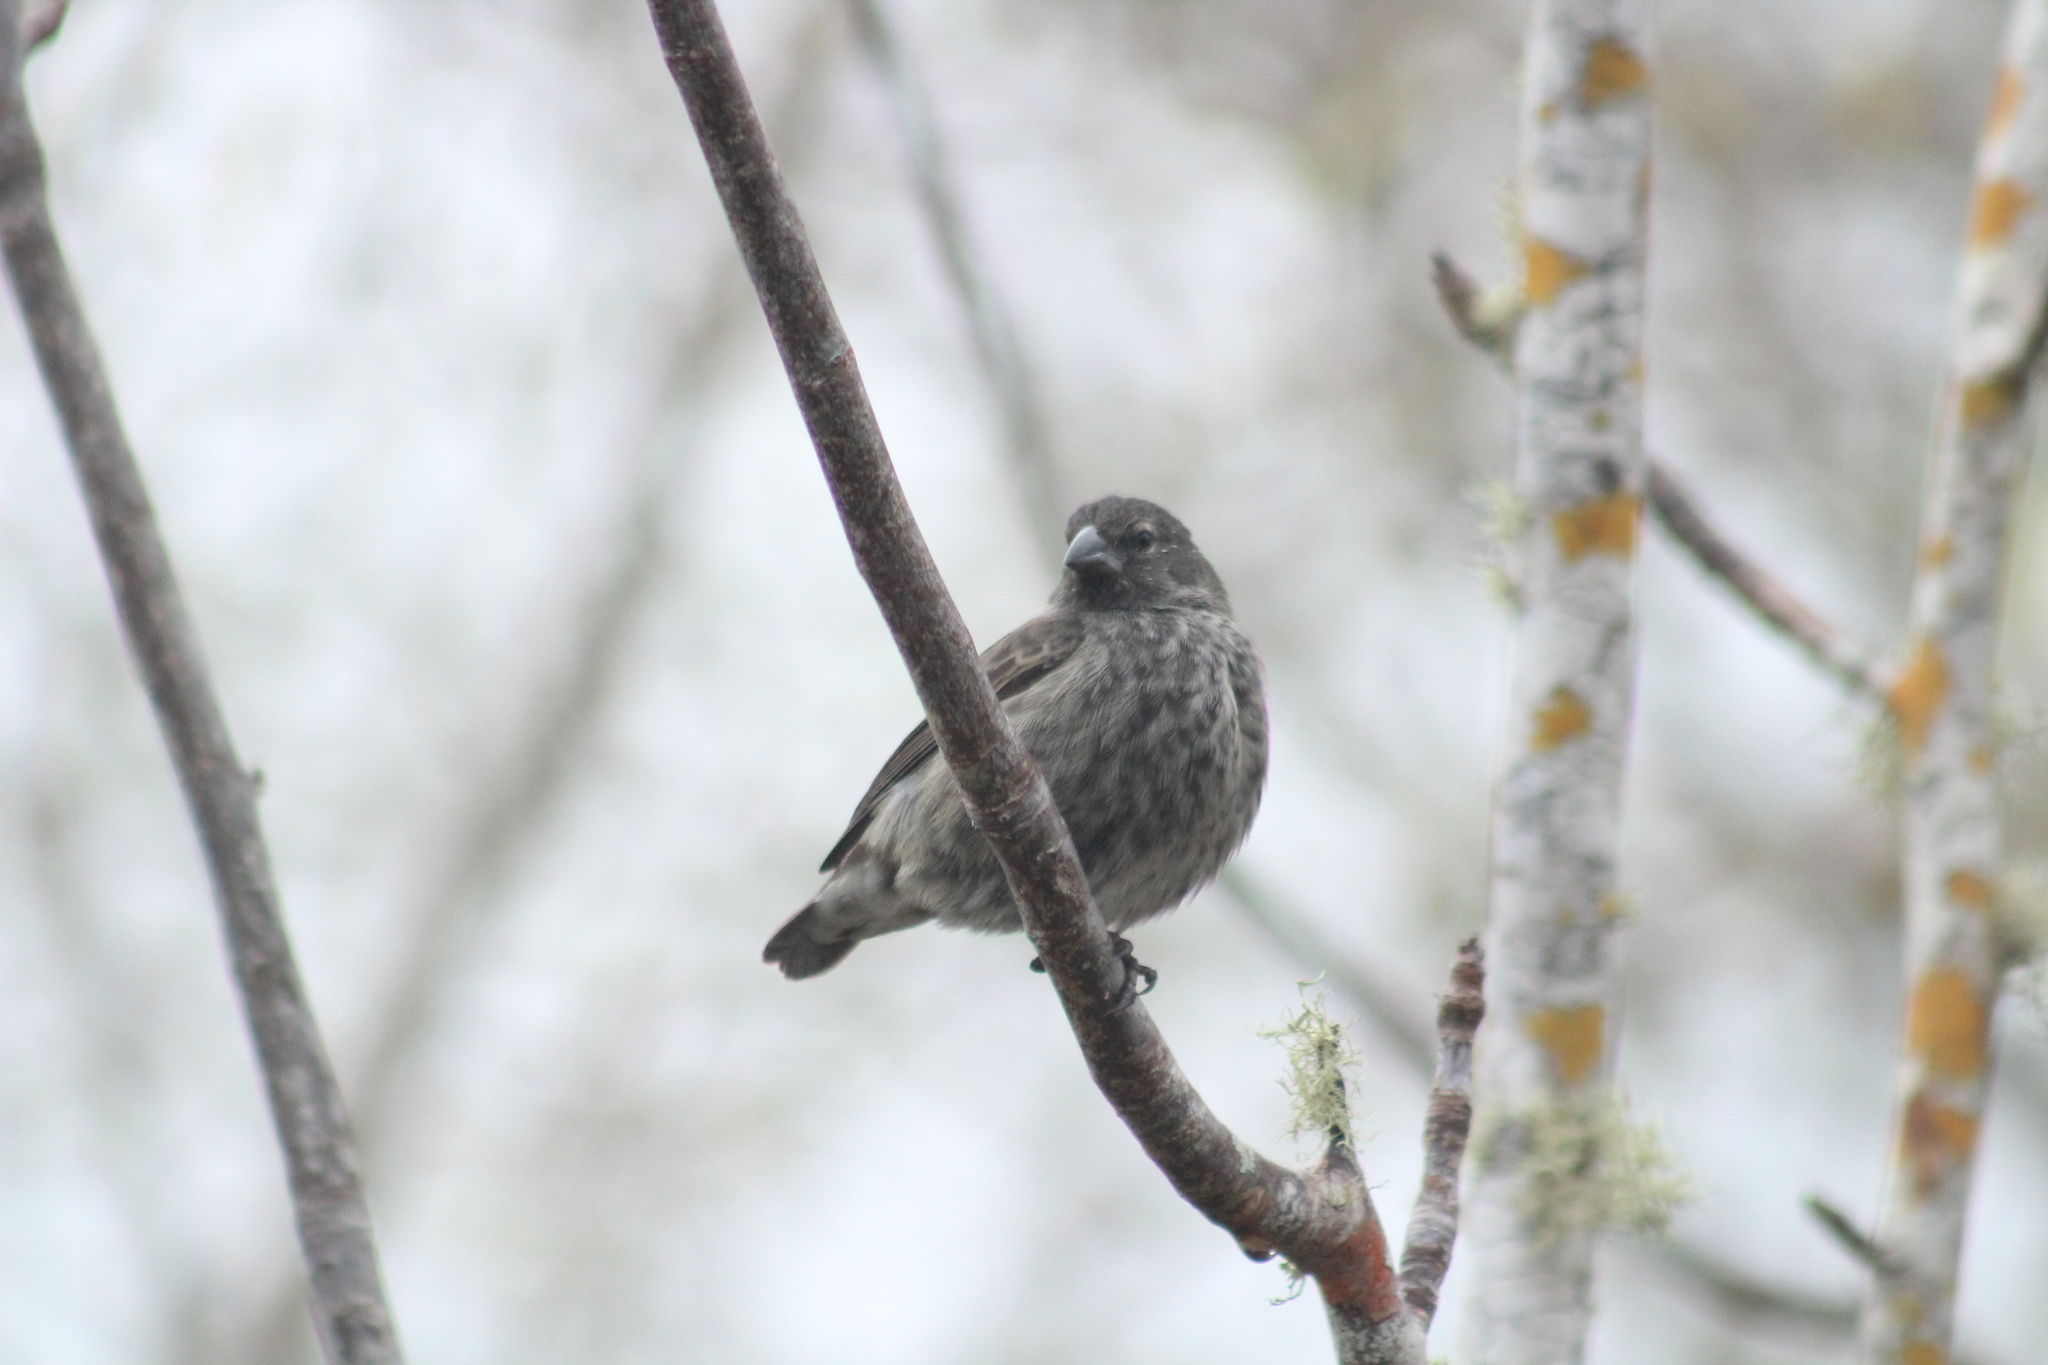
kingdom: Animalia
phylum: Chordata
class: Aves
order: Passeriformes
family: Thraupidae
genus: Geospiza
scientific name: Geospiza scandens
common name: Common cactus-finch
